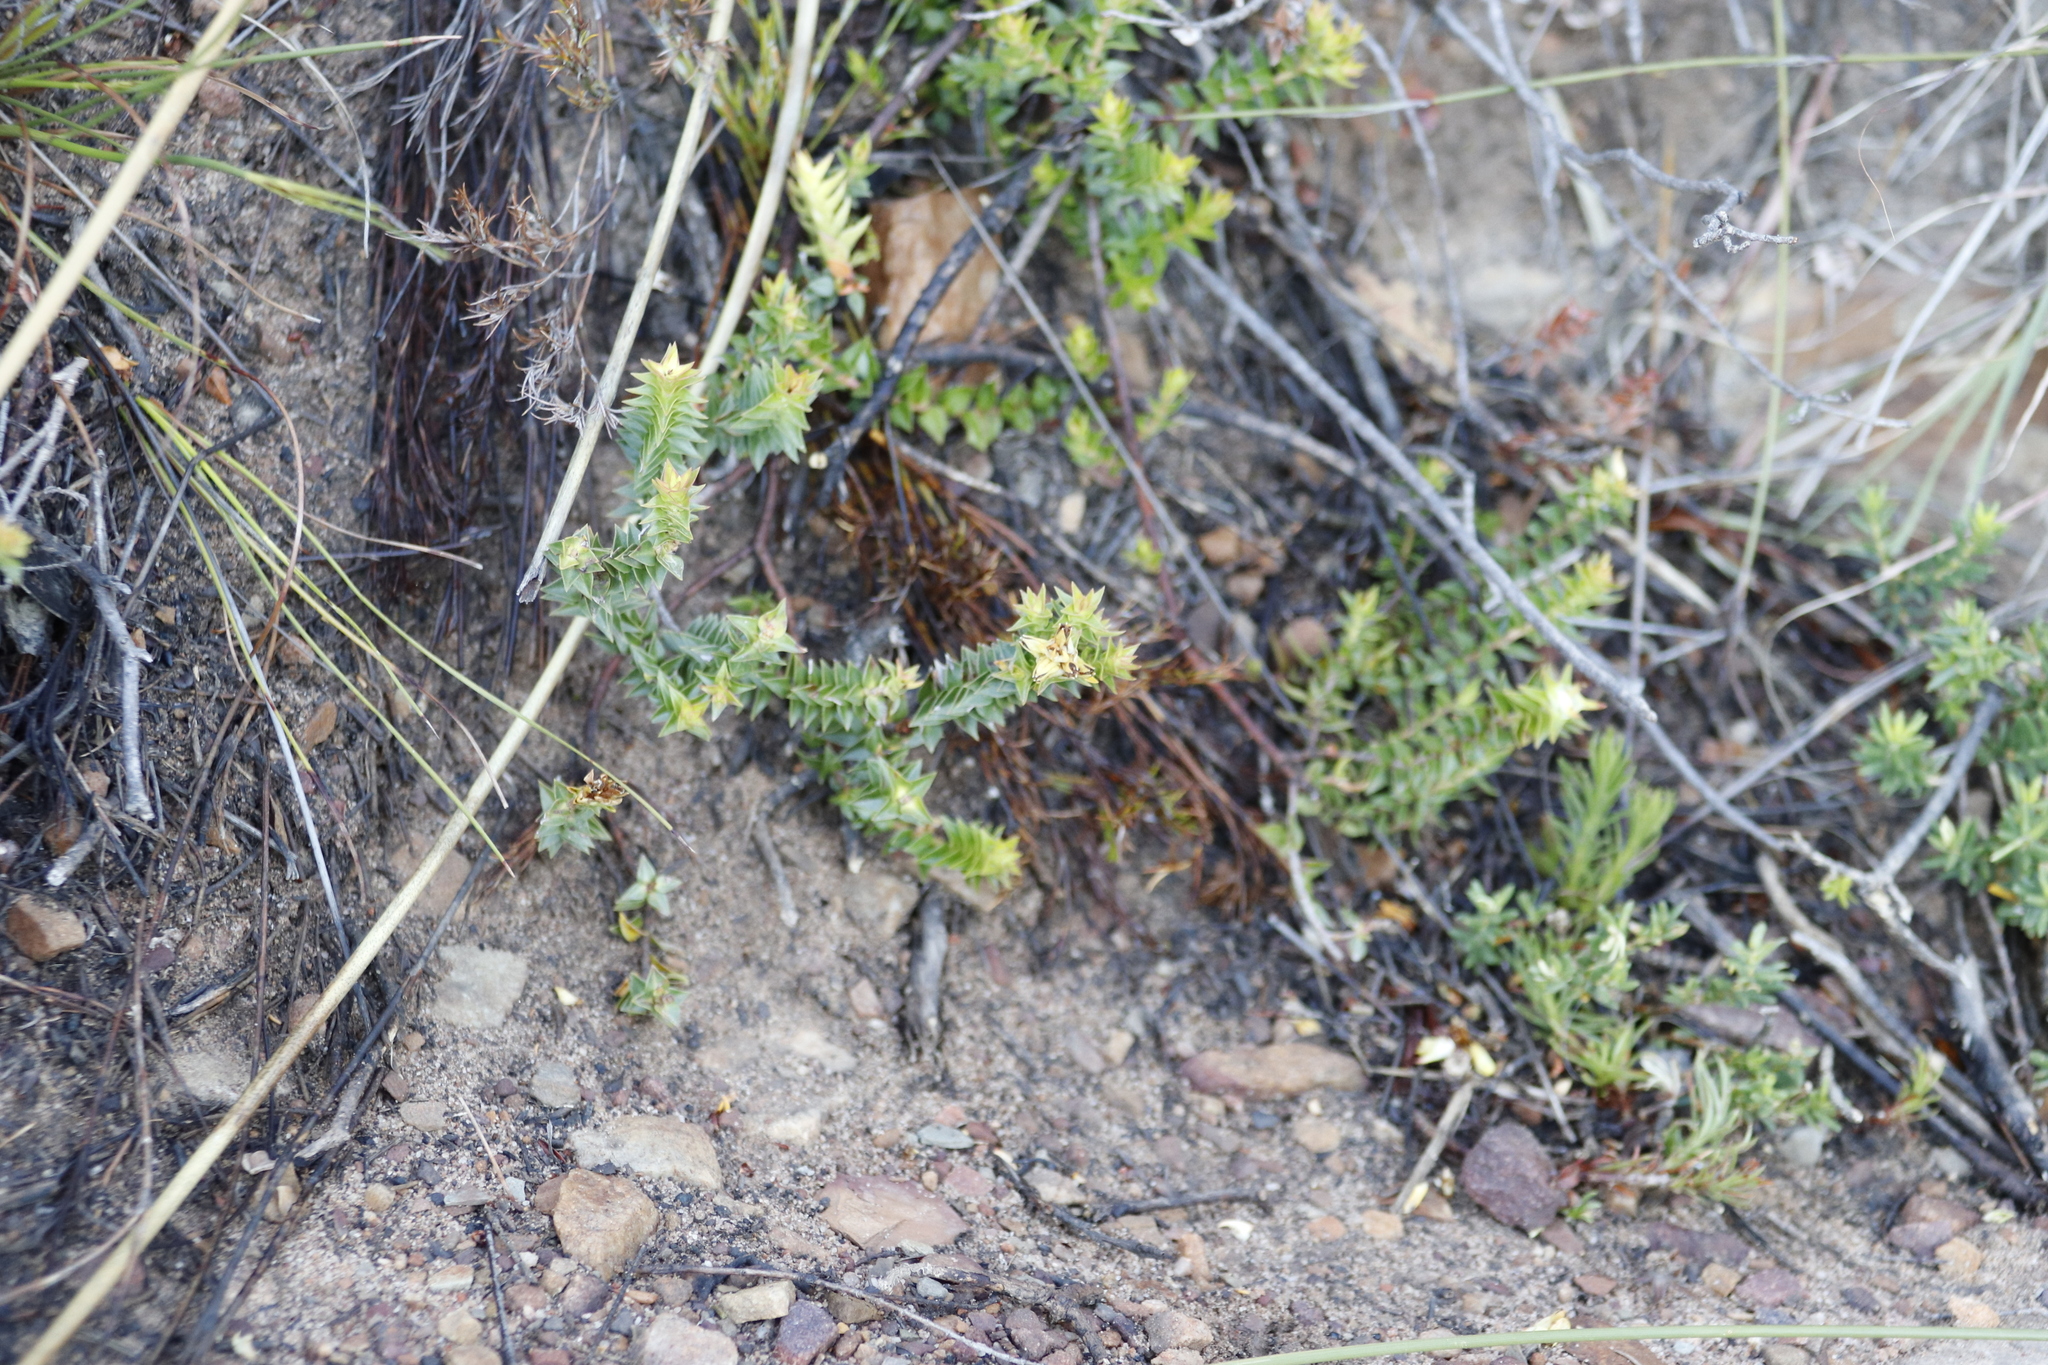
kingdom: Plantae
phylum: Tracheophyta
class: Magnoliopsida
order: Myrtales
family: Penaeaceae
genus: Penaea
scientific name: Penaea mucronata
